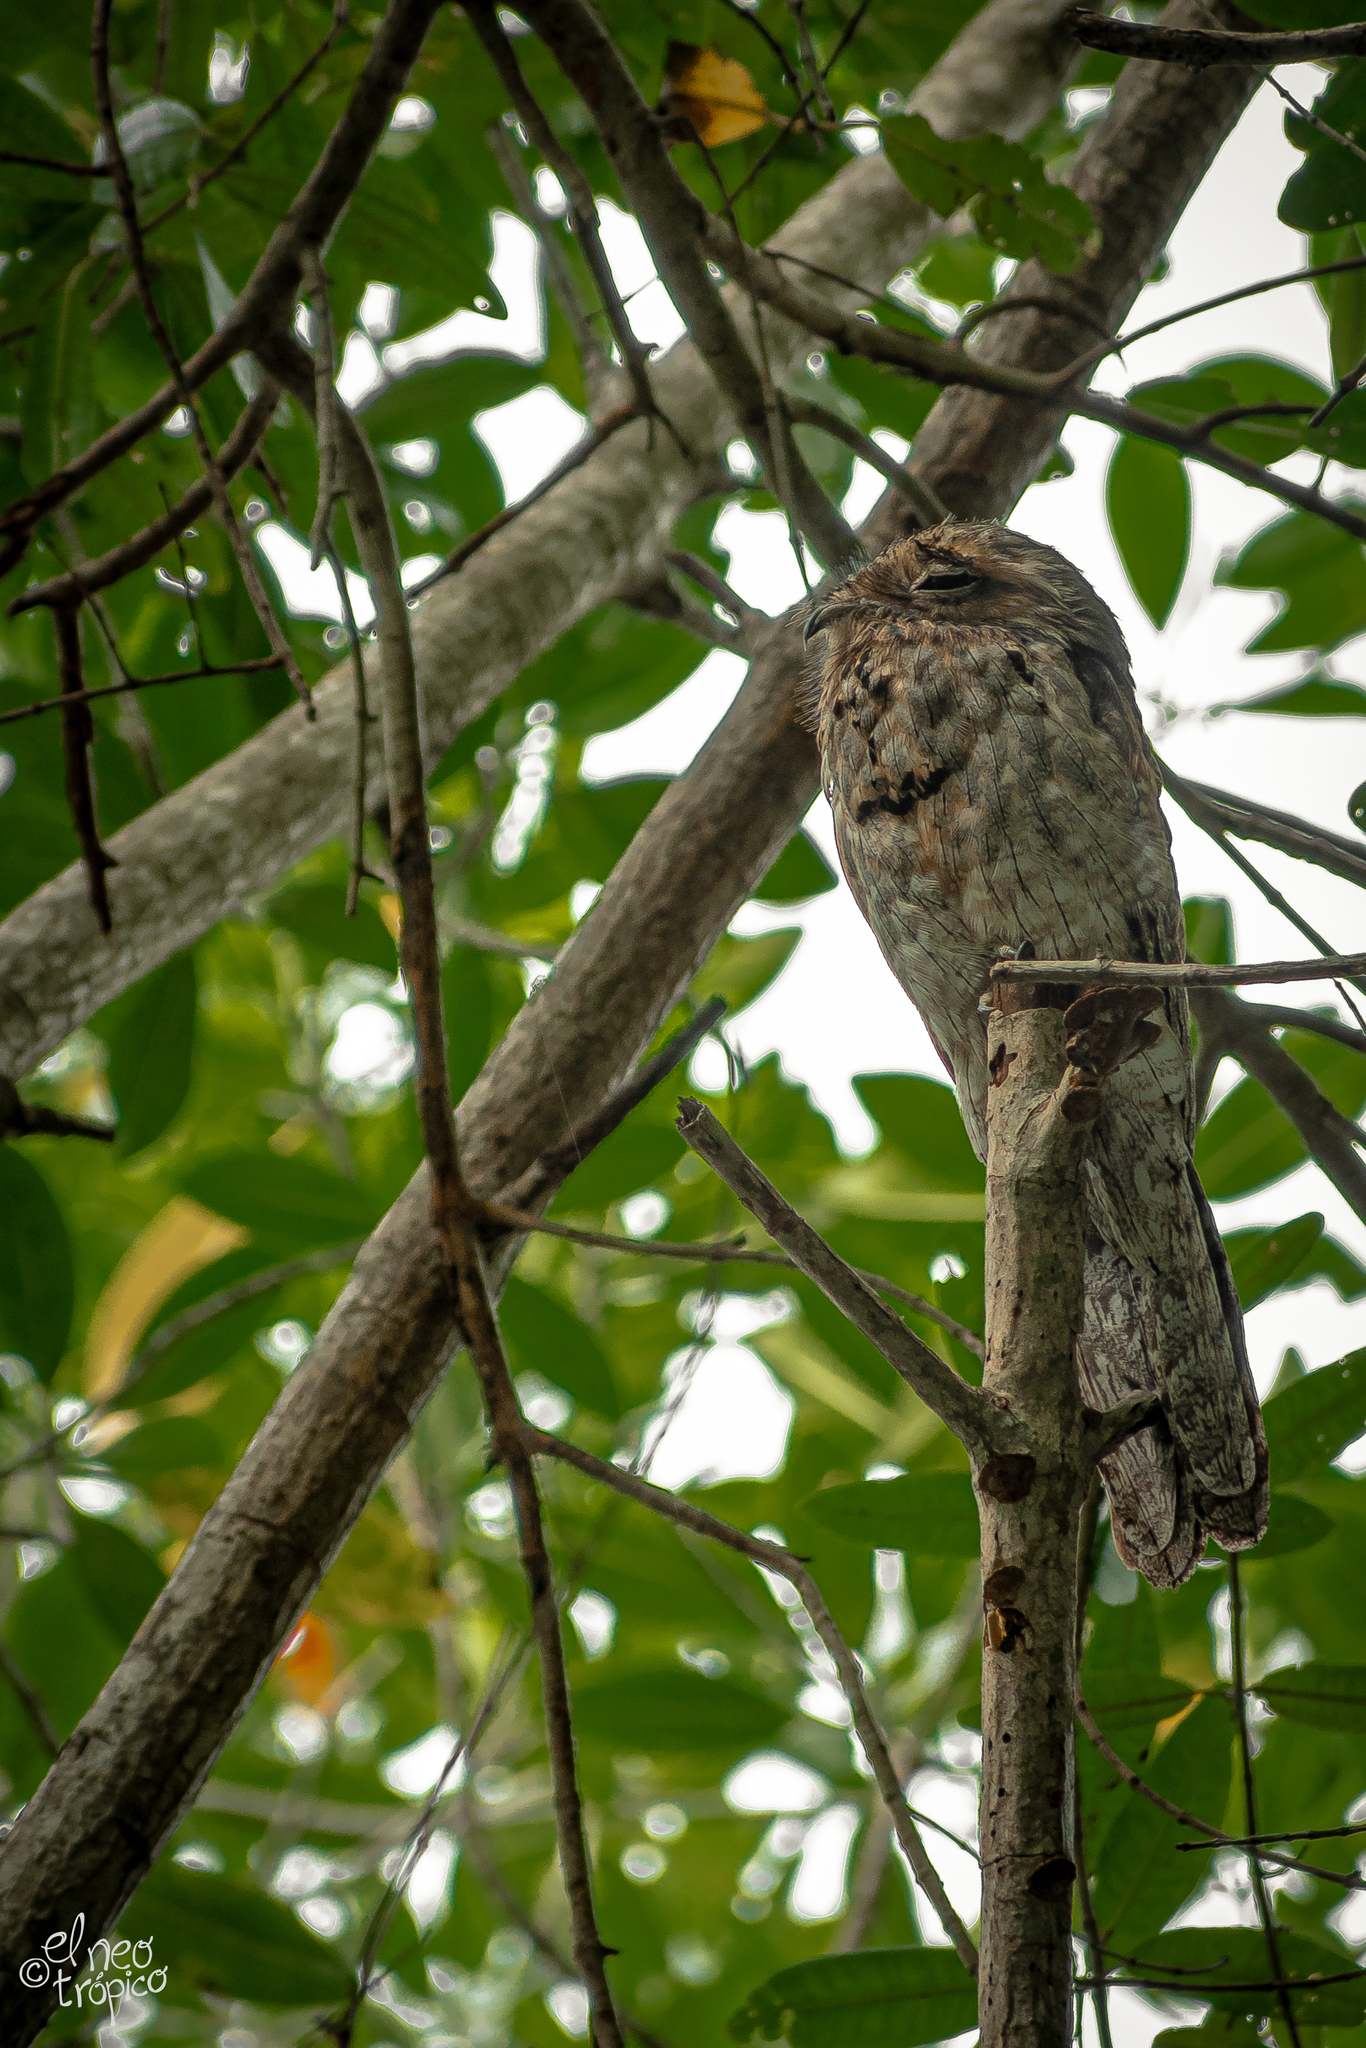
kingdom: Animalia
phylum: Chordata
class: Aves
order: Nyctibiiformes
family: Nyctibiidae
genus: Nyctibius
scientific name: Nyctibius jamaicensis
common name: Northern potoo
